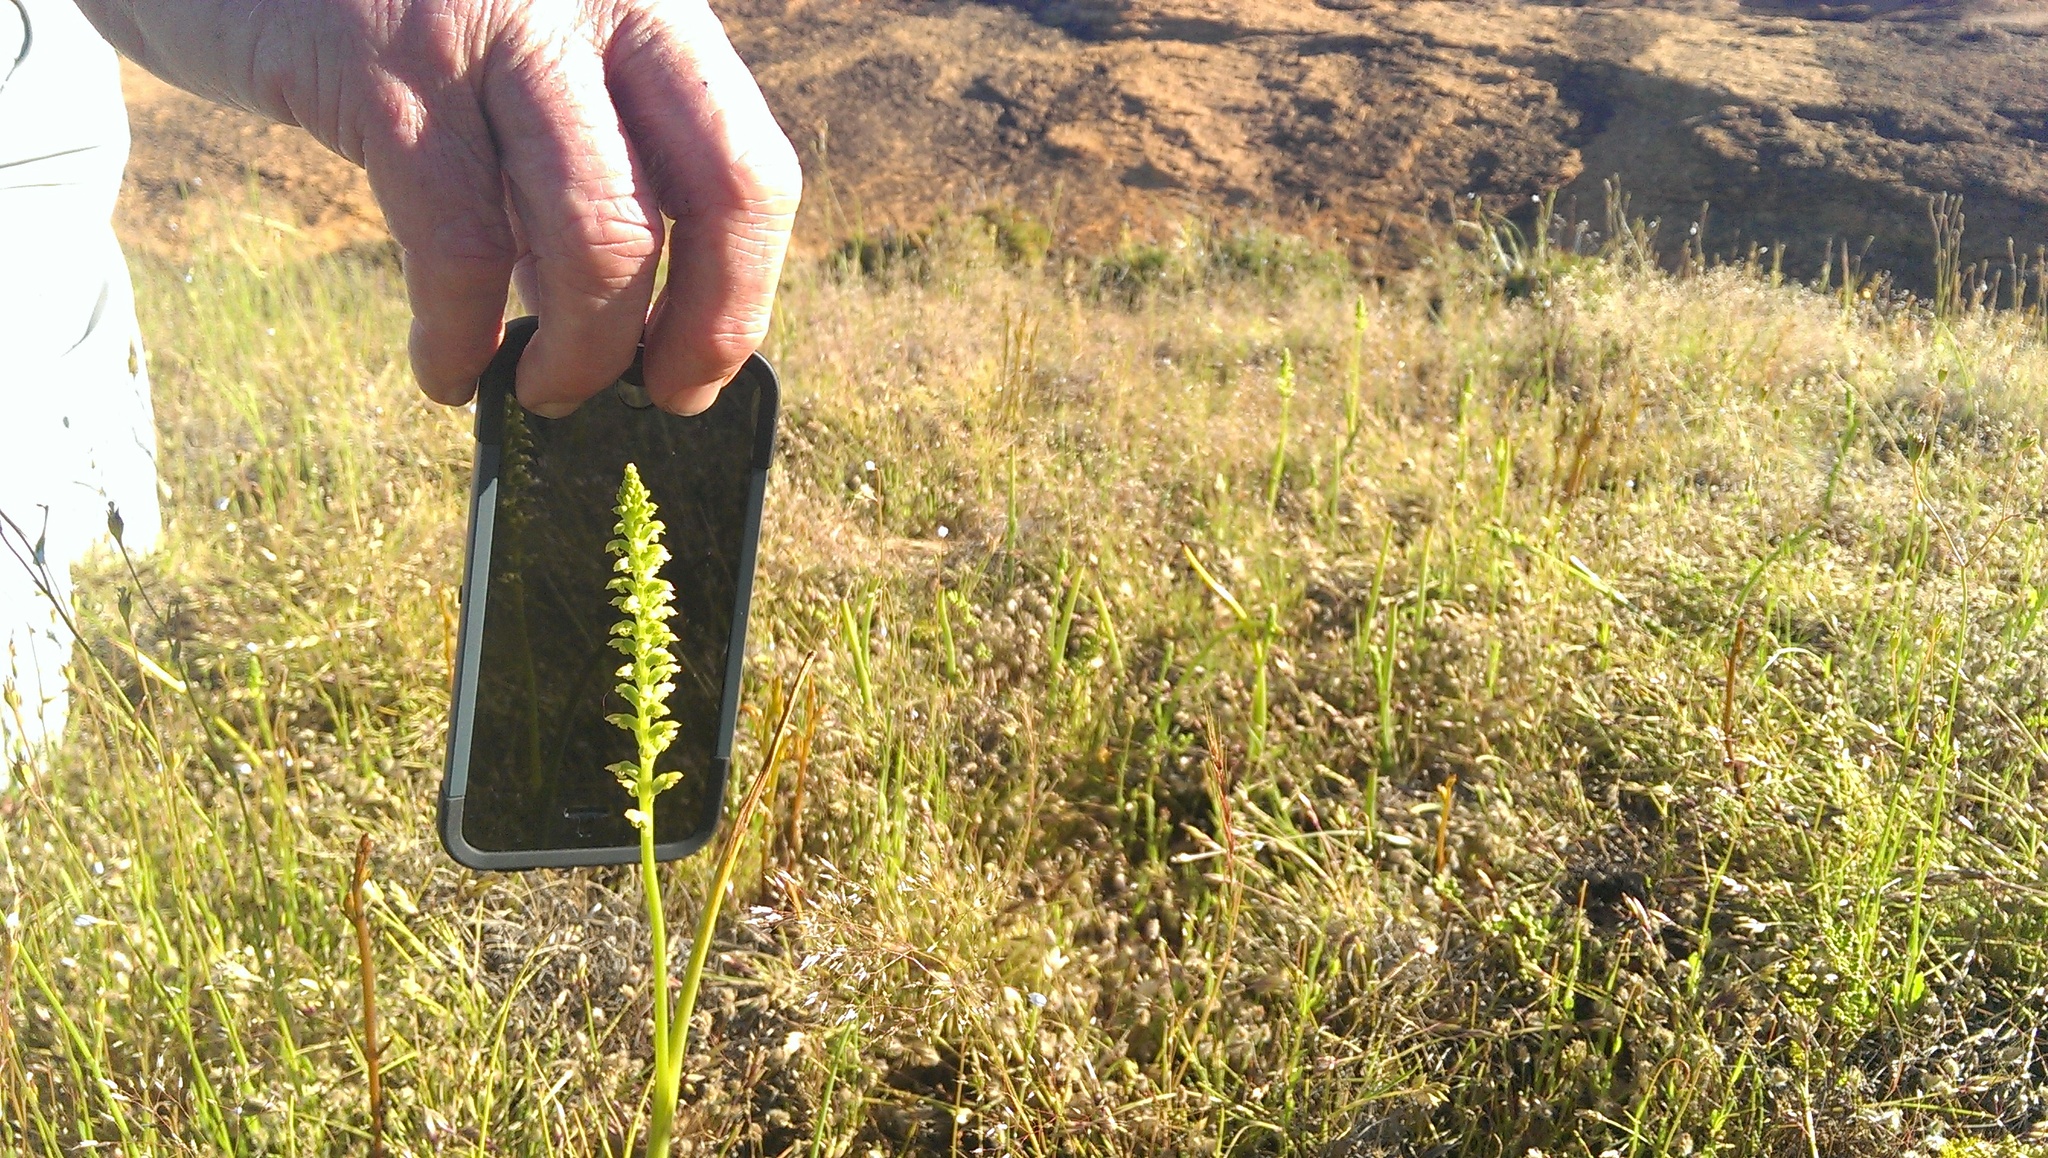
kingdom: Plantae
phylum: Tracheophyta
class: Liliopsida
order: Asparagales
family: Orchidaceae
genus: Microtis
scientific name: Microtis media
